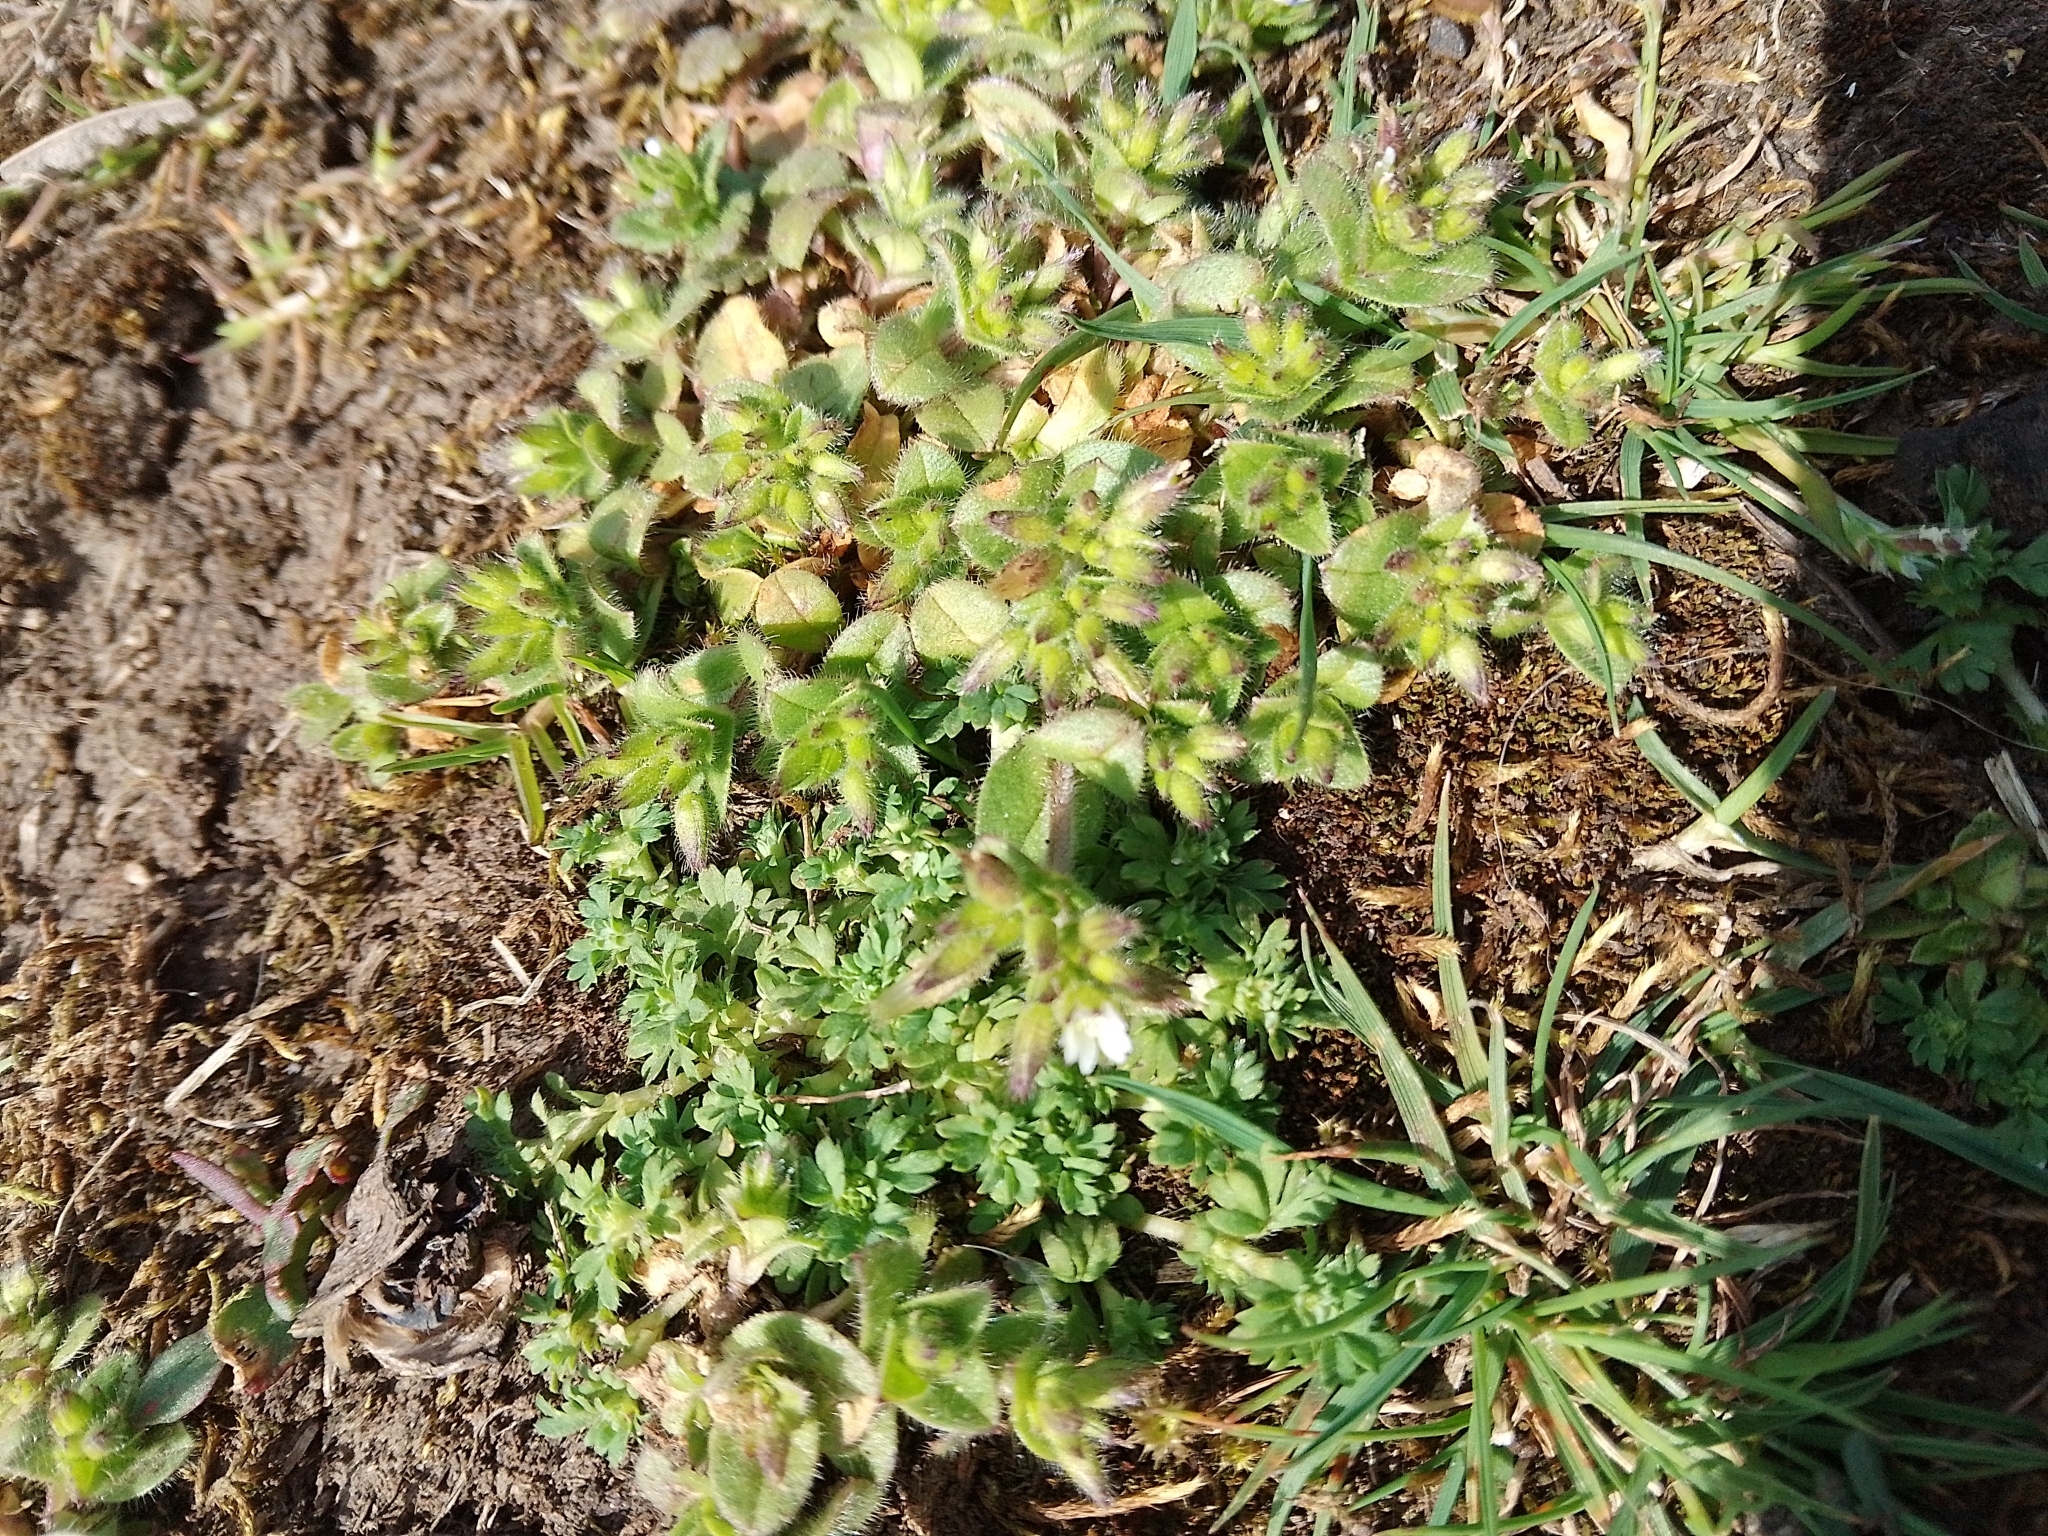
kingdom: Plantae
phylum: Tracheophyta
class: Magnoliopsida
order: Caryophyllales
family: Caryophyllaceae
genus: Cerastium
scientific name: Cerastium glomeratum
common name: Sticky chickweed
